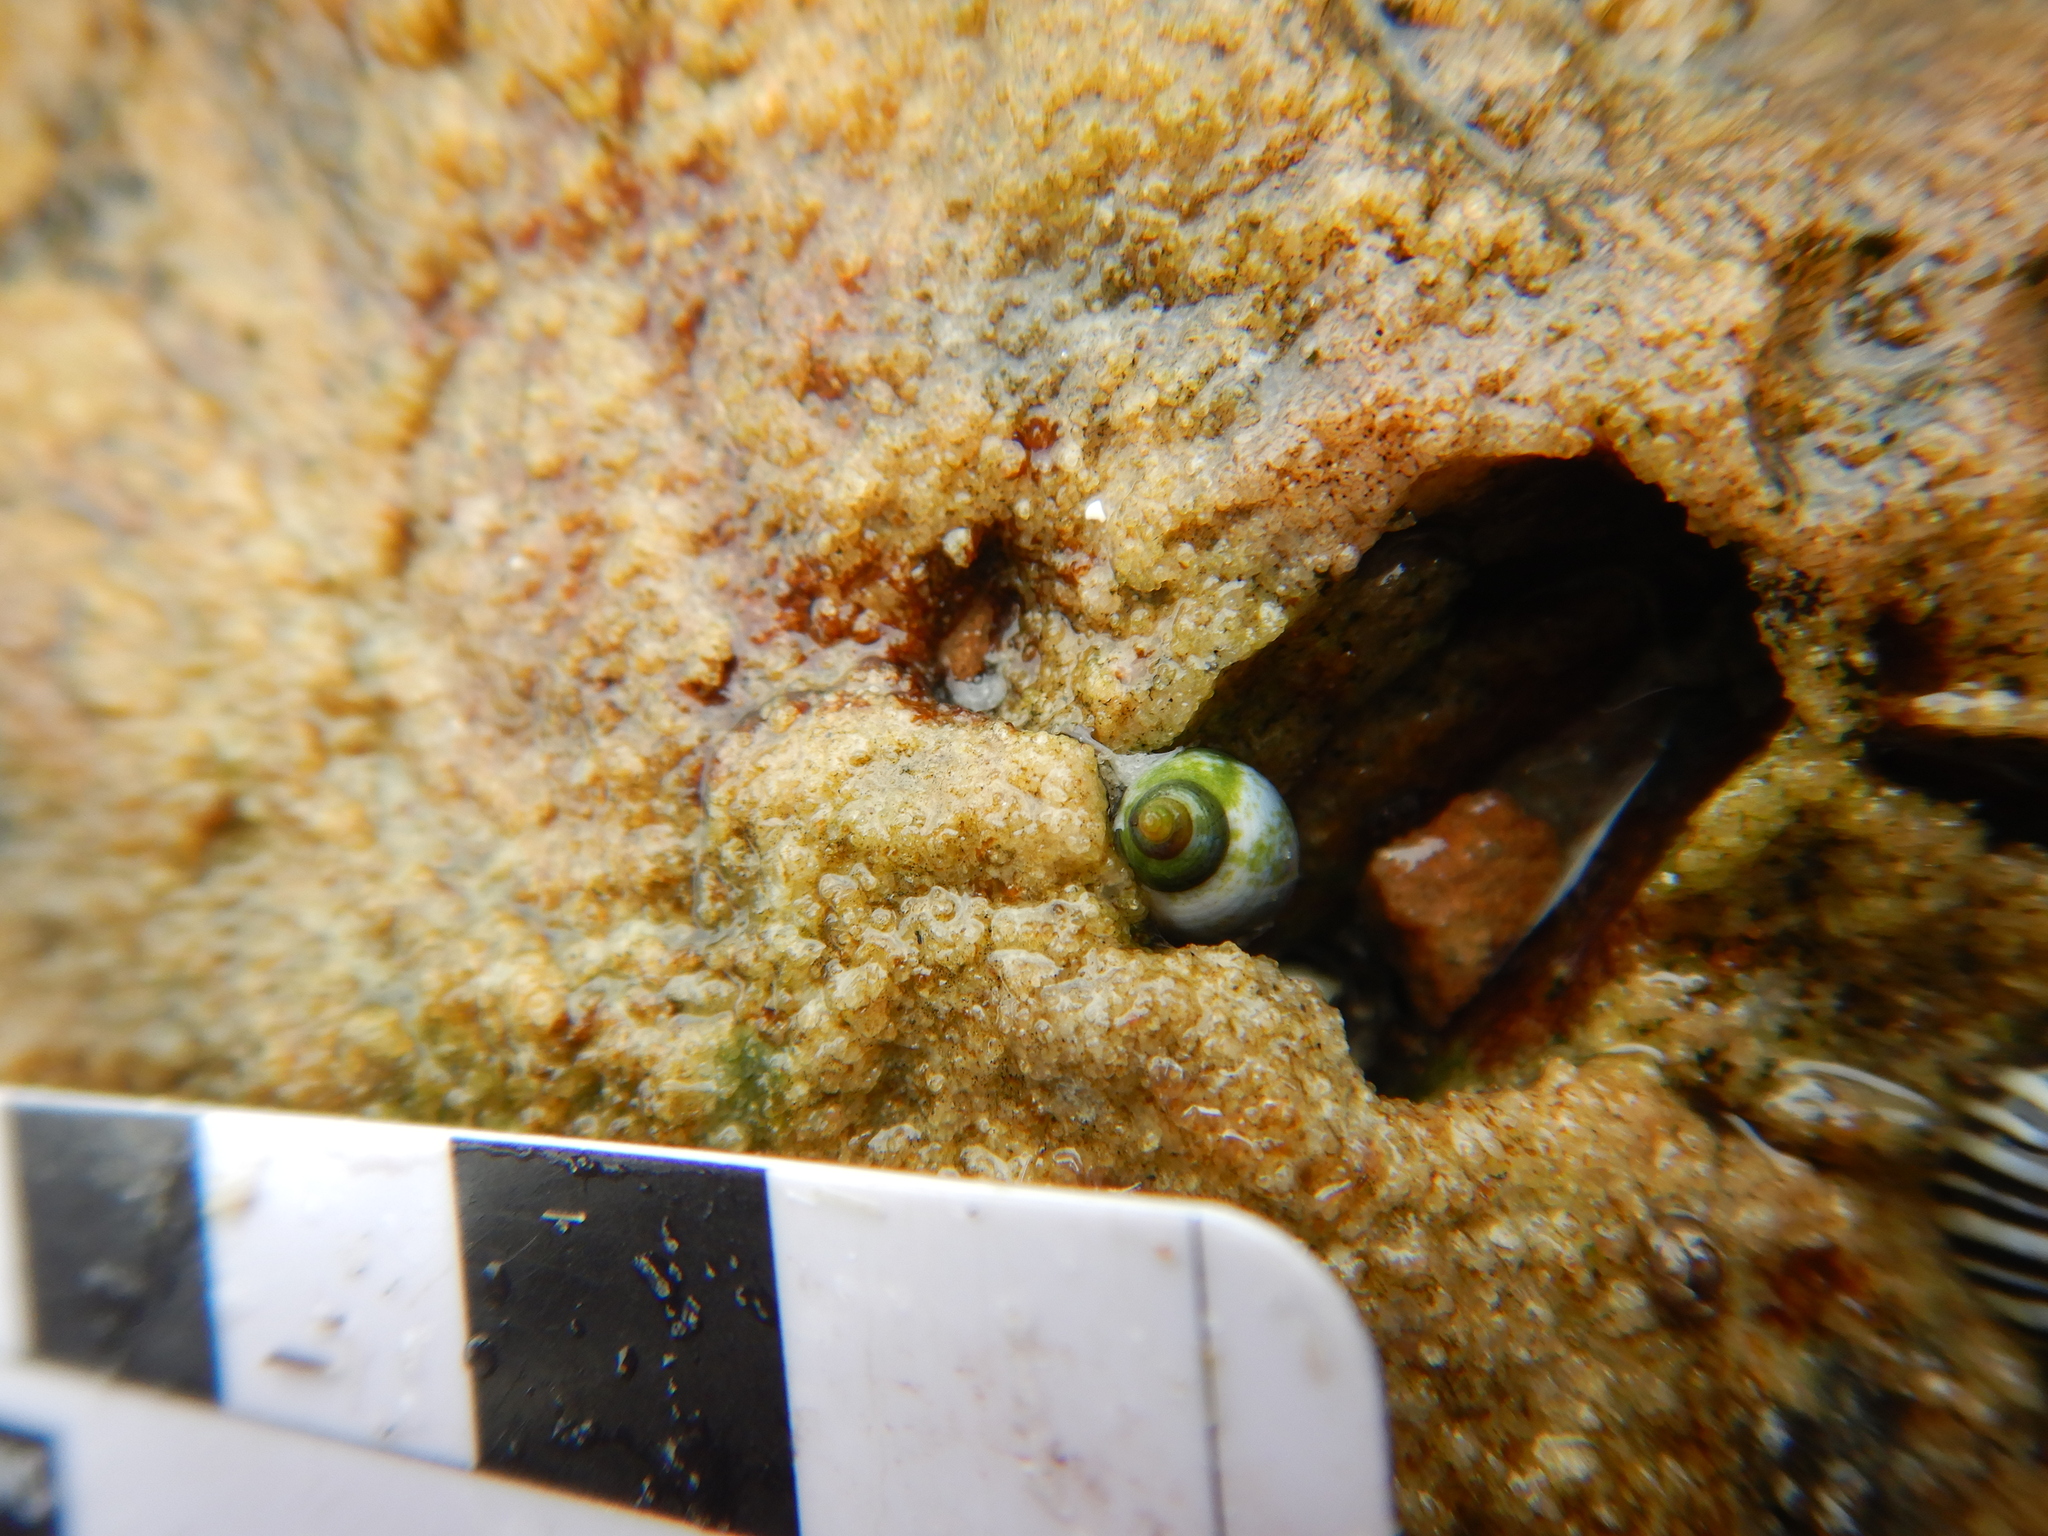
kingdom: Animalia
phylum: Mollusca
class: Gastropoda
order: Littorinimorpha
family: Littorinidae
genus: Austrolittorina
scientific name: Austrolittorina unifasciata
